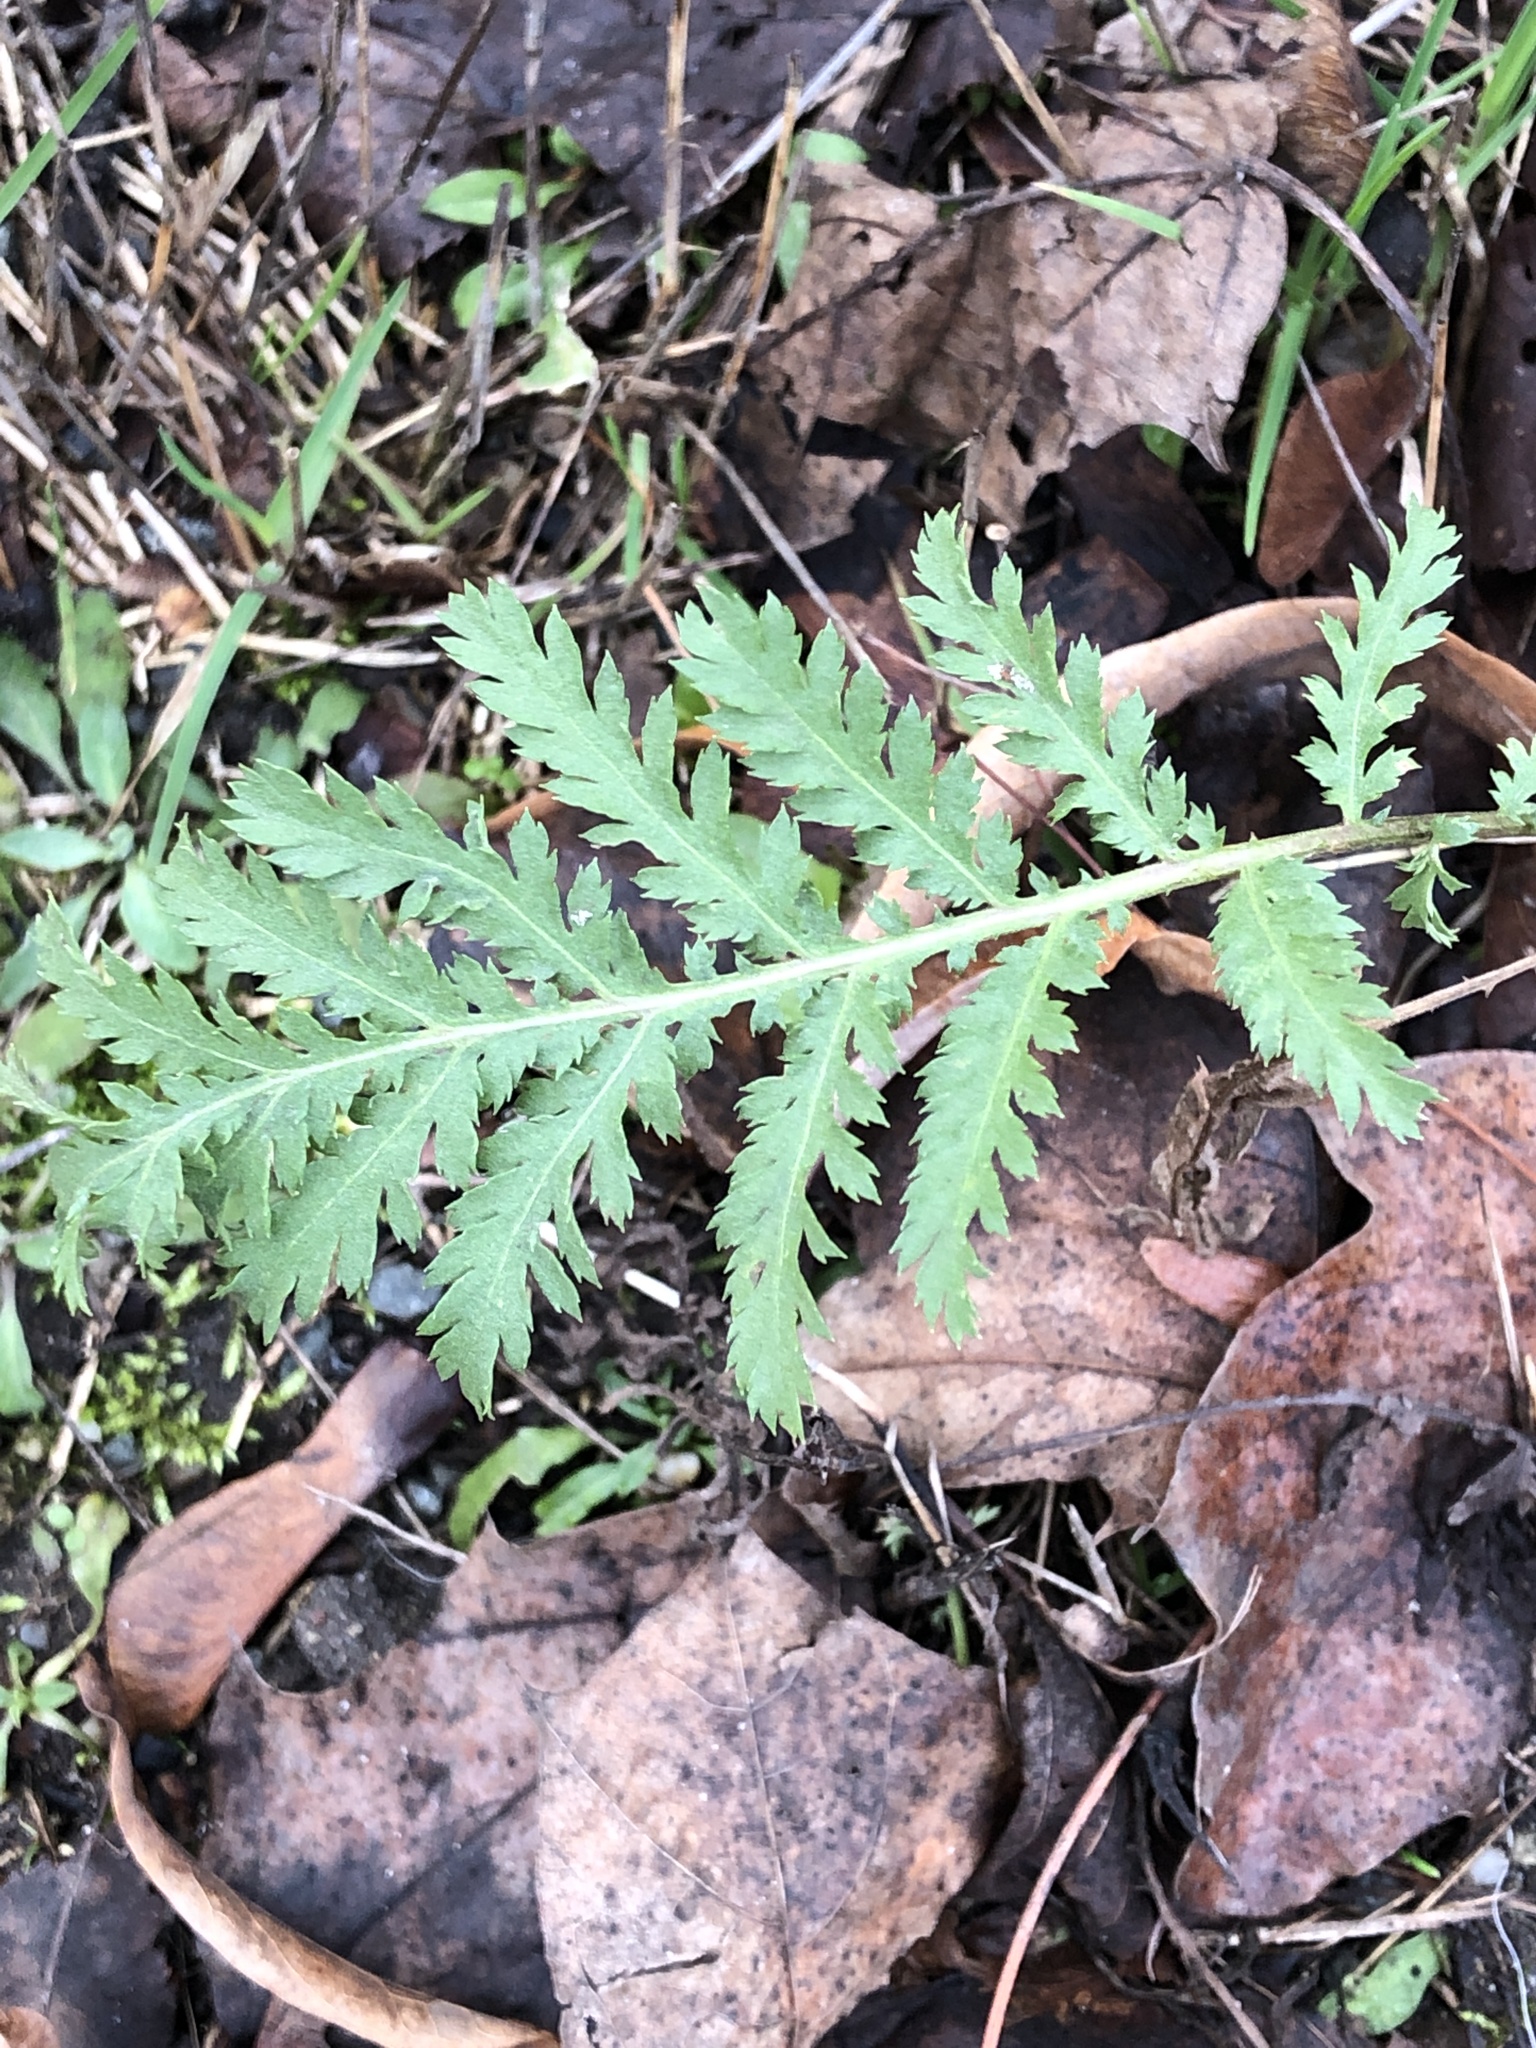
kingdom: Plantae
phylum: Tracheophyta
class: Magnoliopsida
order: Asterales
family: Asteraceae
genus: Tanacetum
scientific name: Tanacetum vulgare
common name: Common tansy
